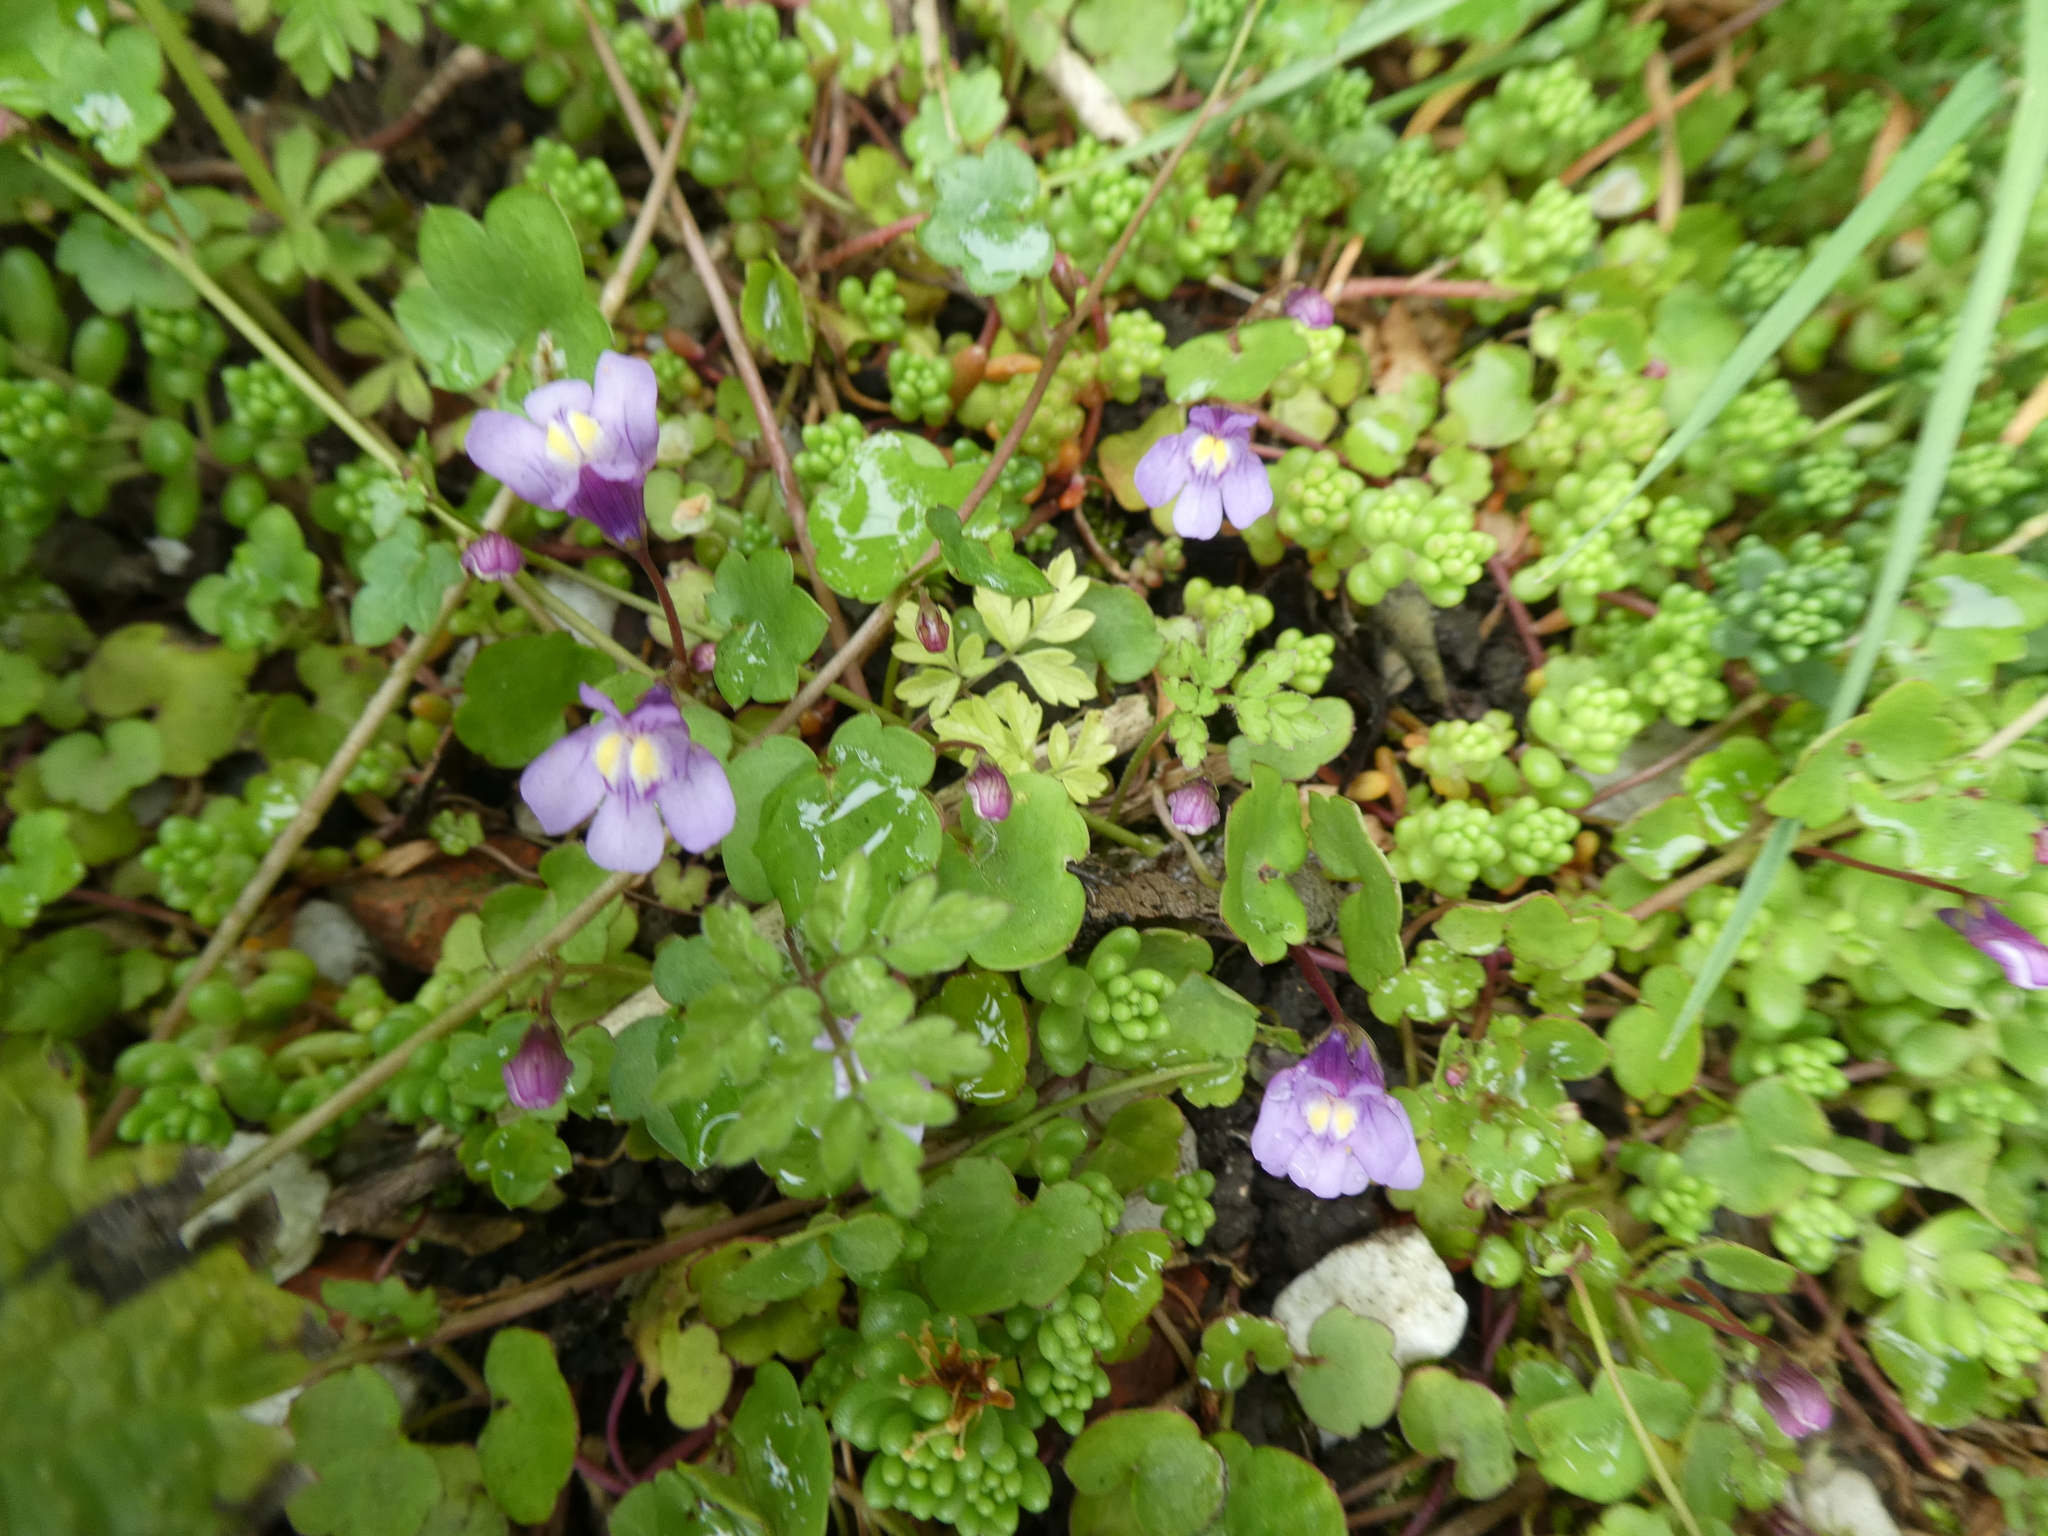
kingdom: Plantae
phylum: Tracheophyta
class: Magnoliopsida
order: Lamiales
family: Plantaginaceae
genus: Cymbalaria
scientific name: Cymbalaria muralis
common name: Ivy-leaved toadflax
